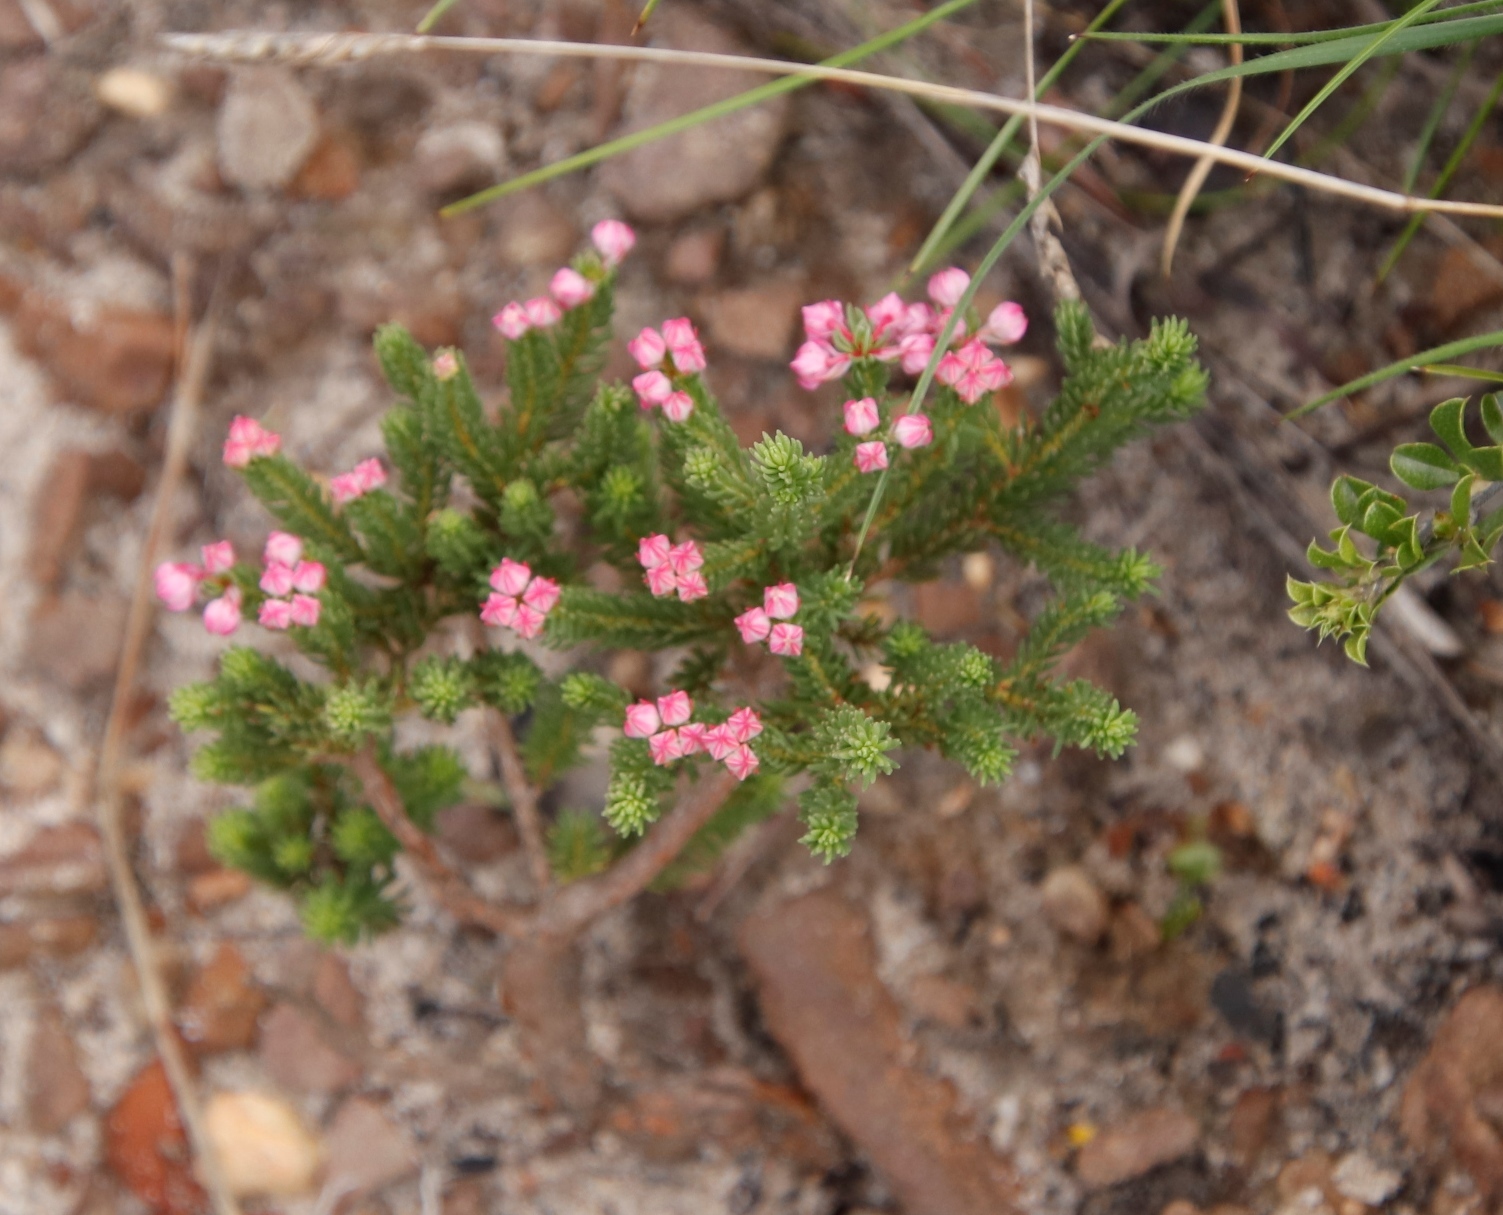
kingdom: Plantae
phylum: Tracheophyta
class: Magnoliopsida
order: Ericales
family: Ericaceae
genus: Erica
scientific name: Erica baccans
